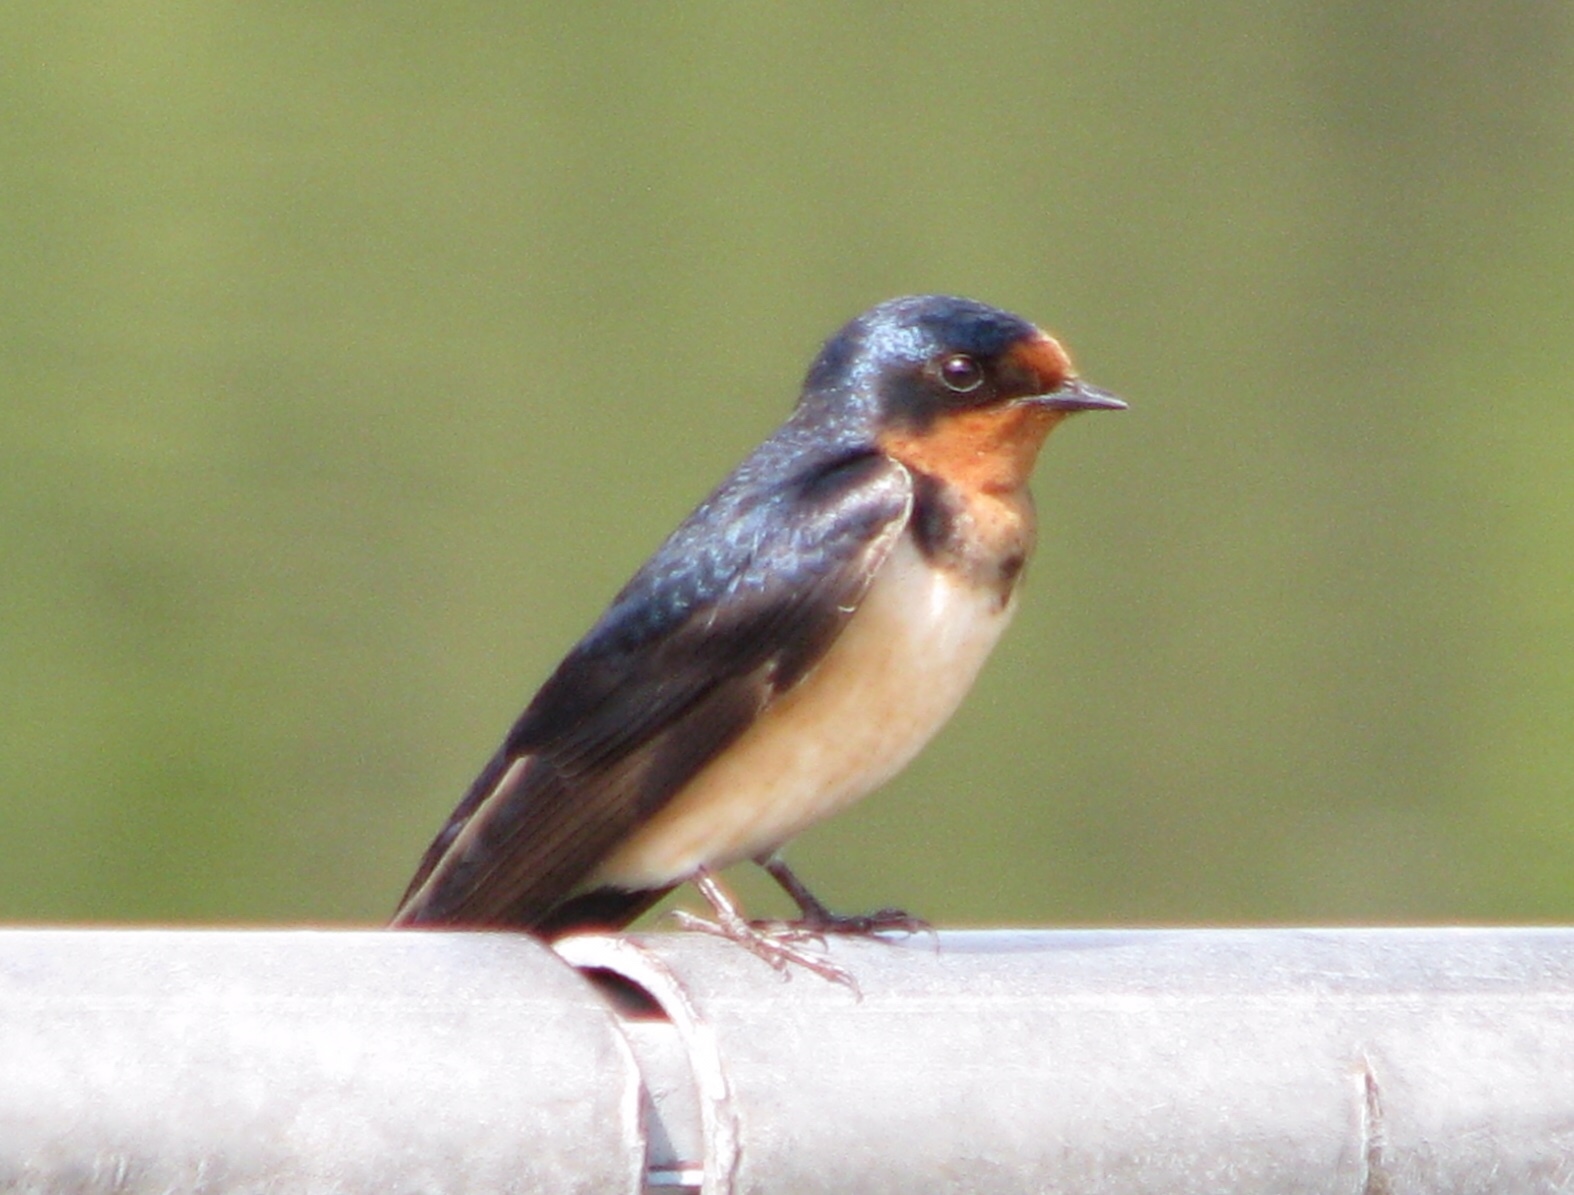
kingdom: Animalia
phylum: Chordata
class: Aves
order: Passeriformes
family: Hirundinidae
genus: Hirundo
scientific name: Hirundo rustica
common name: Barn swallow
